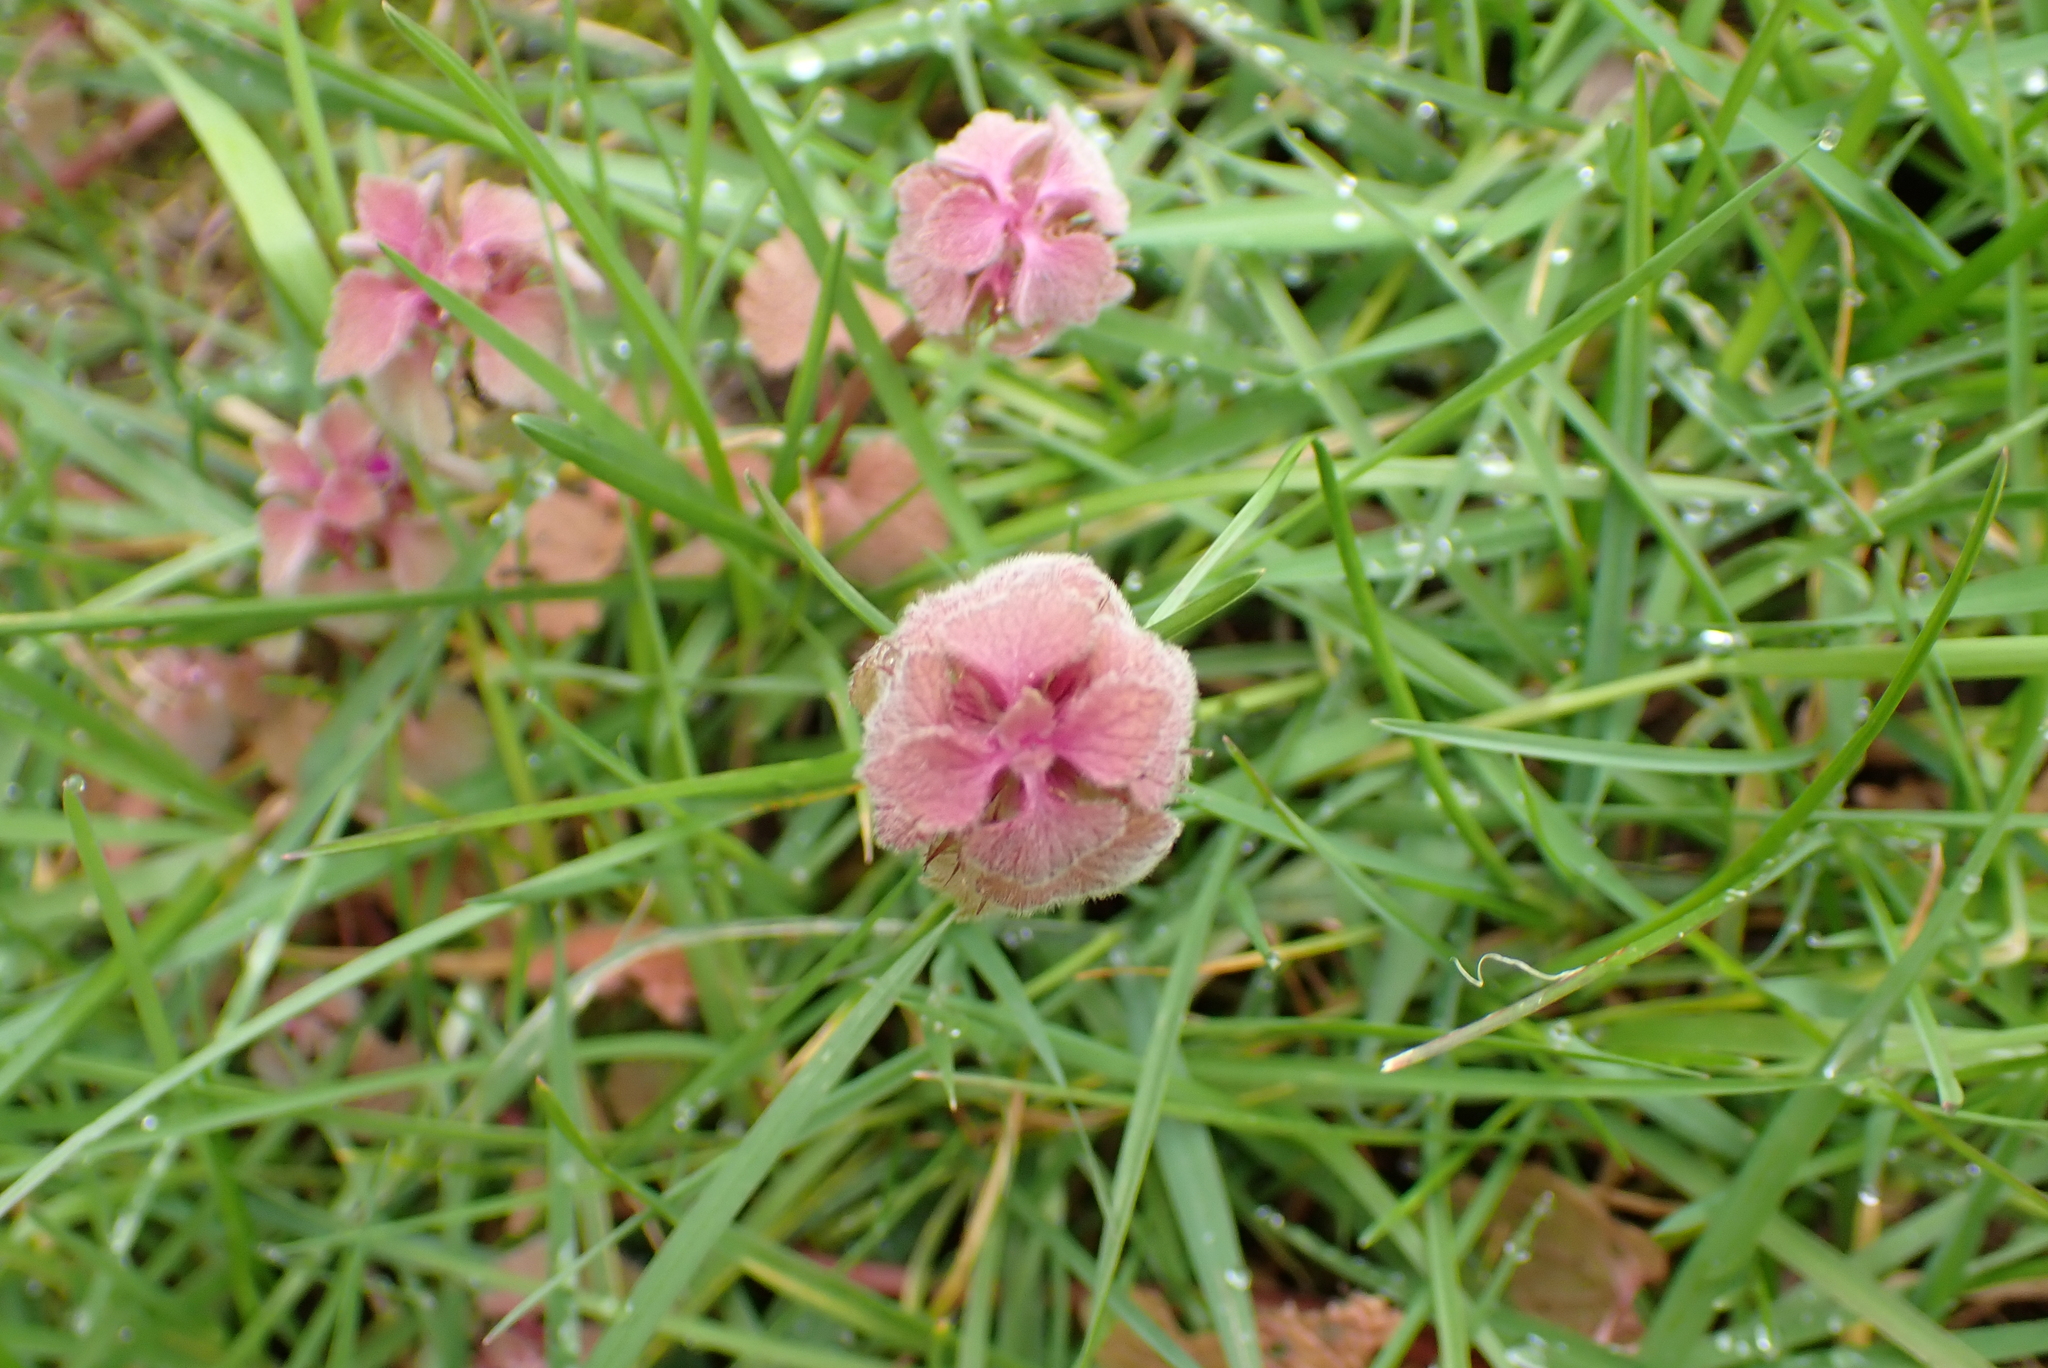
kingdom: Plantae
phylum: Tracheophyta
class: Magnoliopsida
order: Lamiales
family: Lamiaceae
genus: Lamium
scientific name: Lamium purpureum
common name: Red dead-nettle
